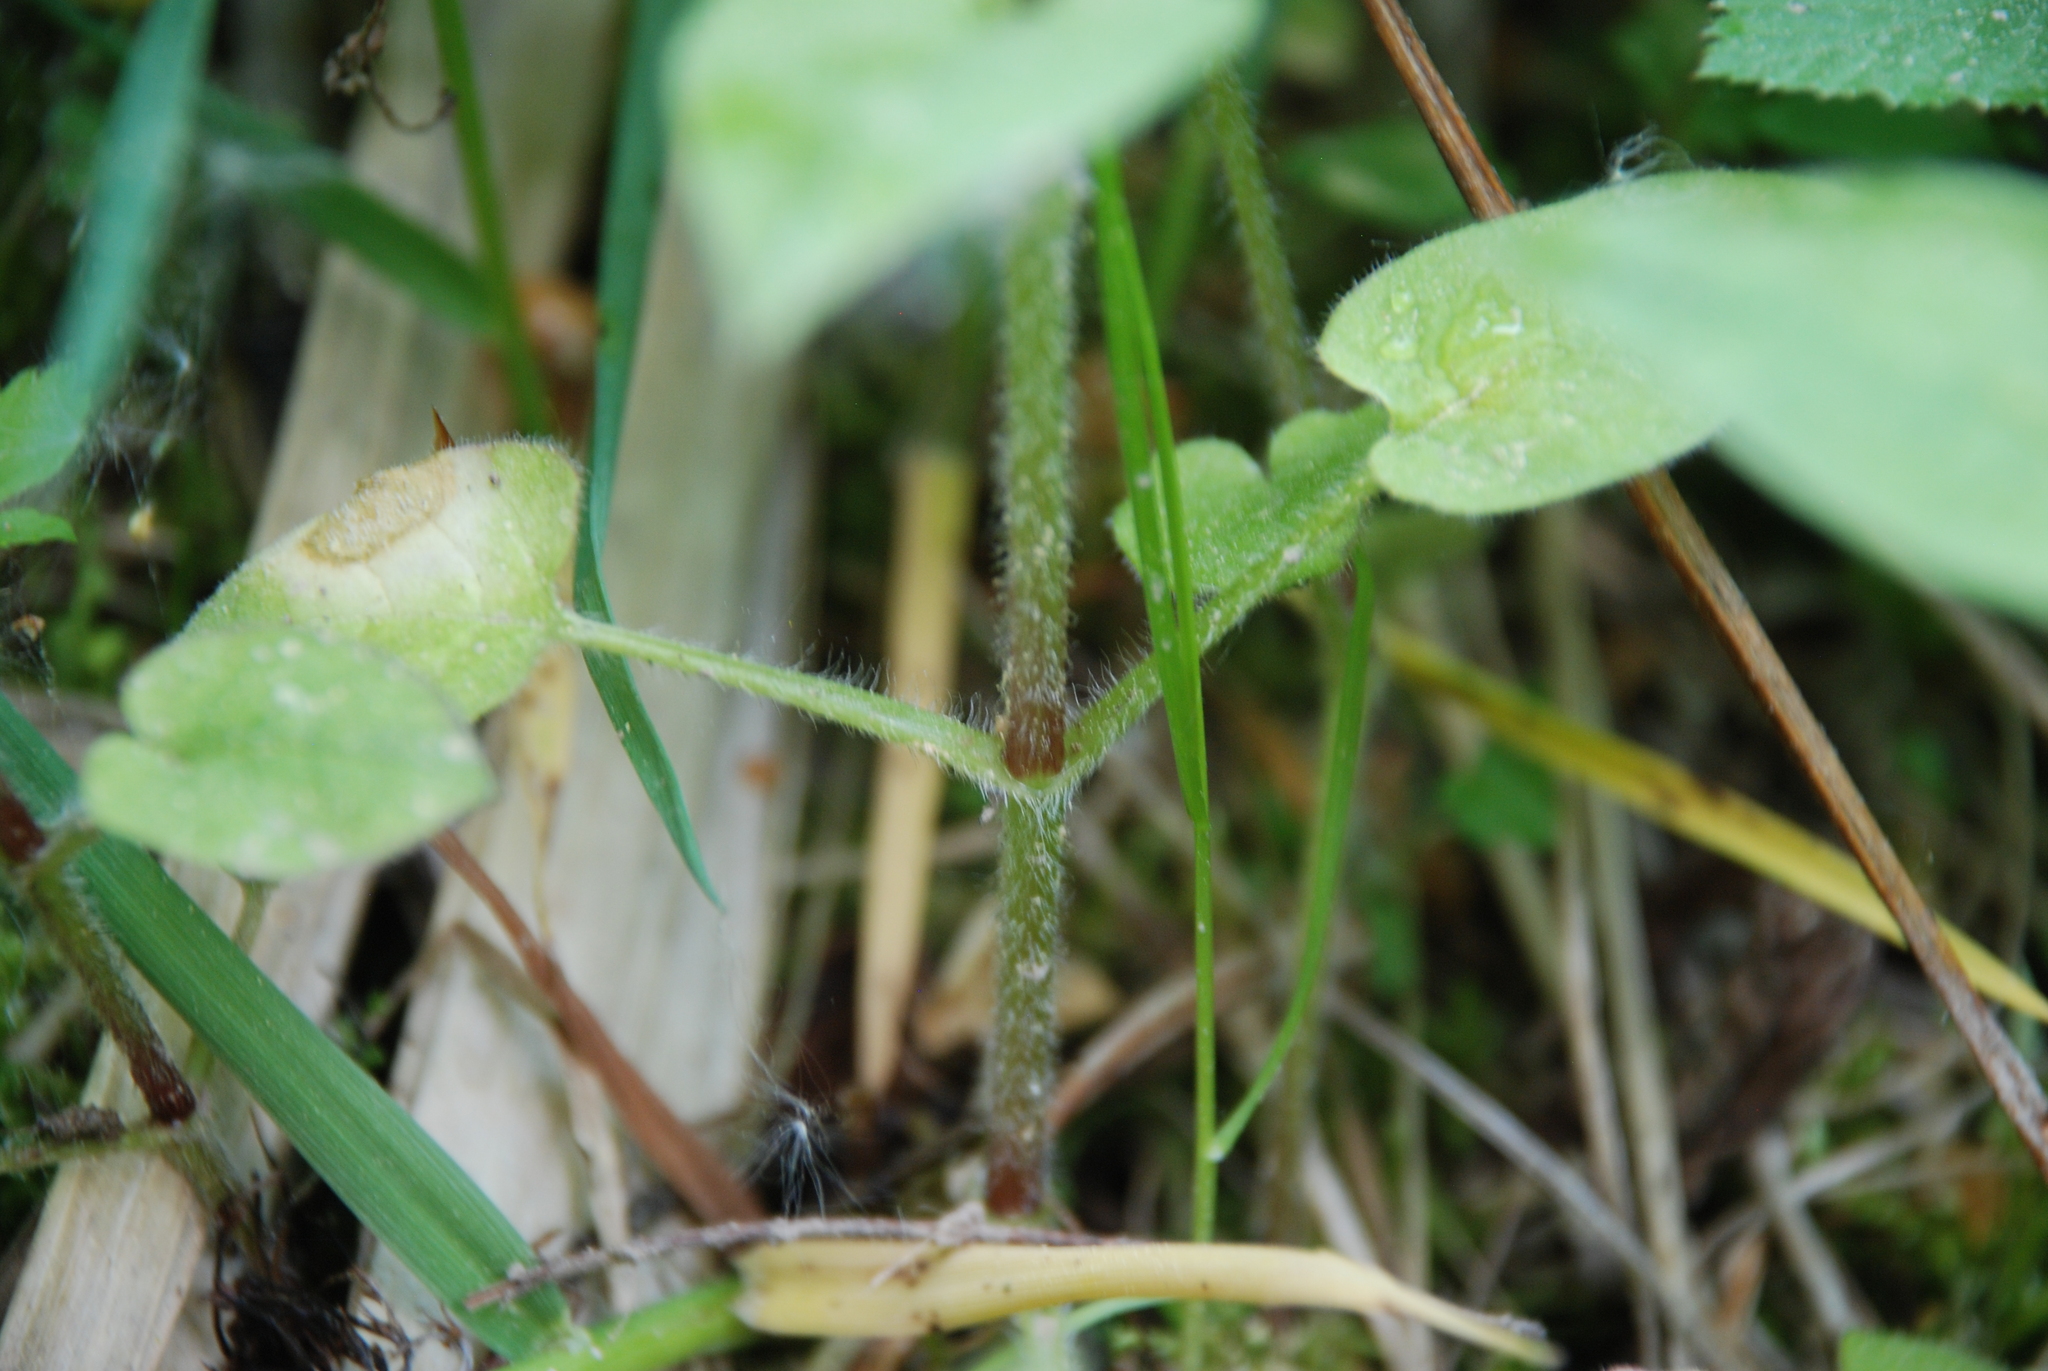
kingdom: Plantae
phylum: Tracheophyta
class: Magnoliopsida
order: Caryophyllales
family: Caryophyllaceae
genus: Stellaria
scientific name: Stellaria nemorum
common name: Wood stitchwort
